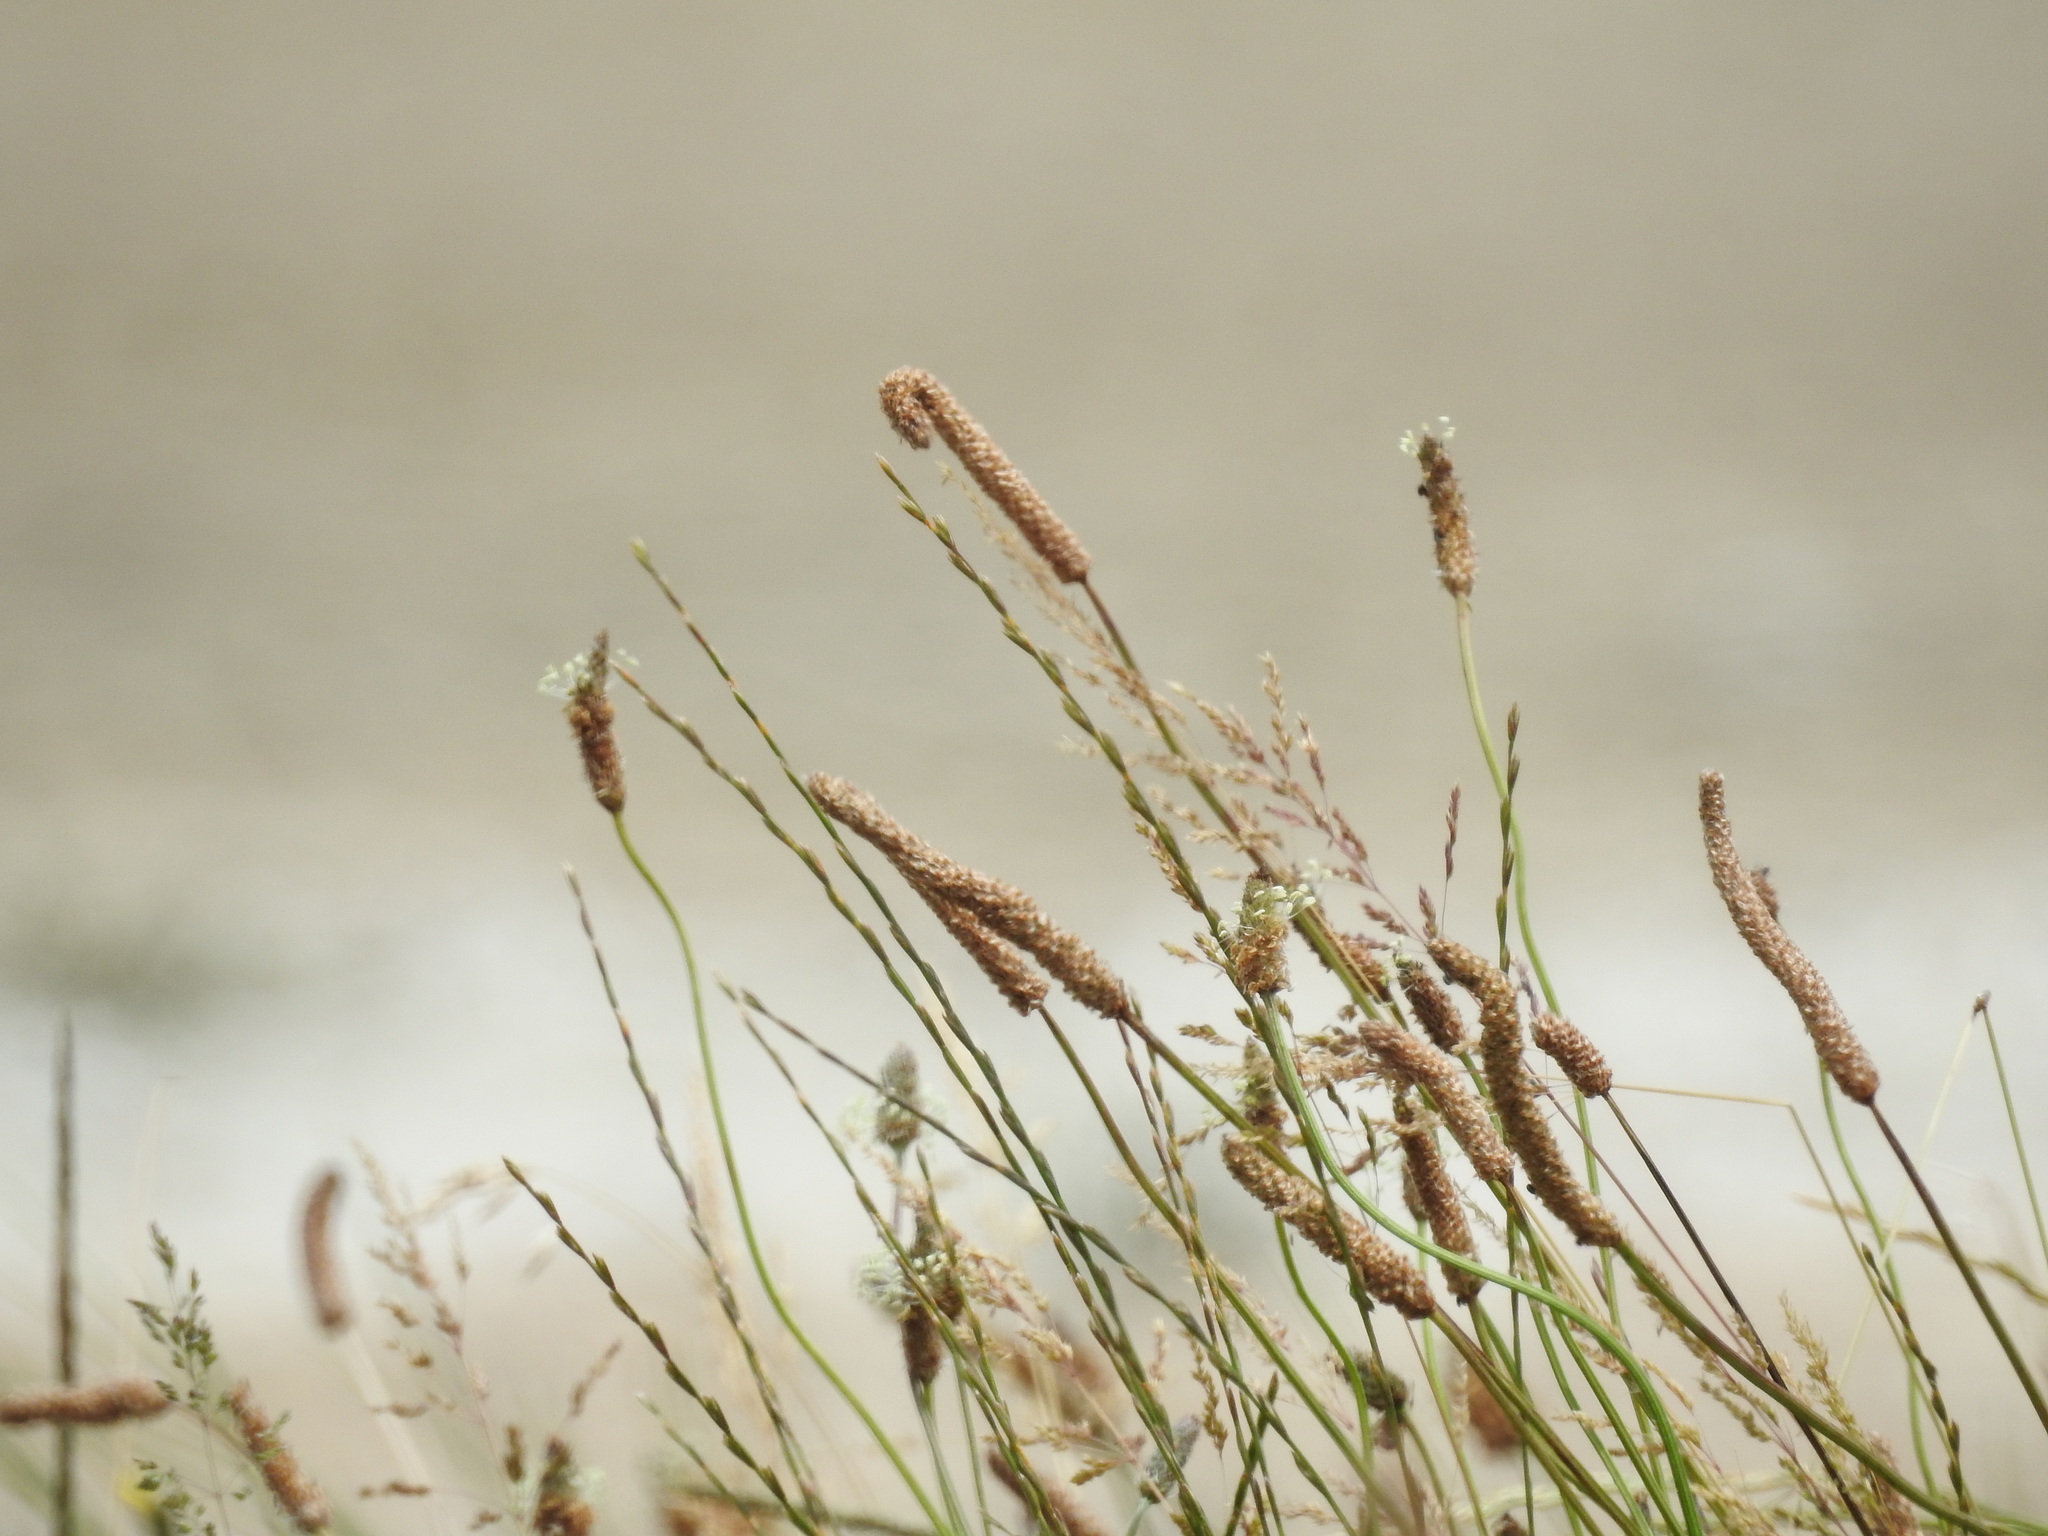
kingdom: Plantae
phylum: Tracheophyta
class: Liliopsida
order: Poales
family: Poaceae
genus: Alopecurus
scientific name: Alopecurus pratensis
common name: Meadow foxtail
